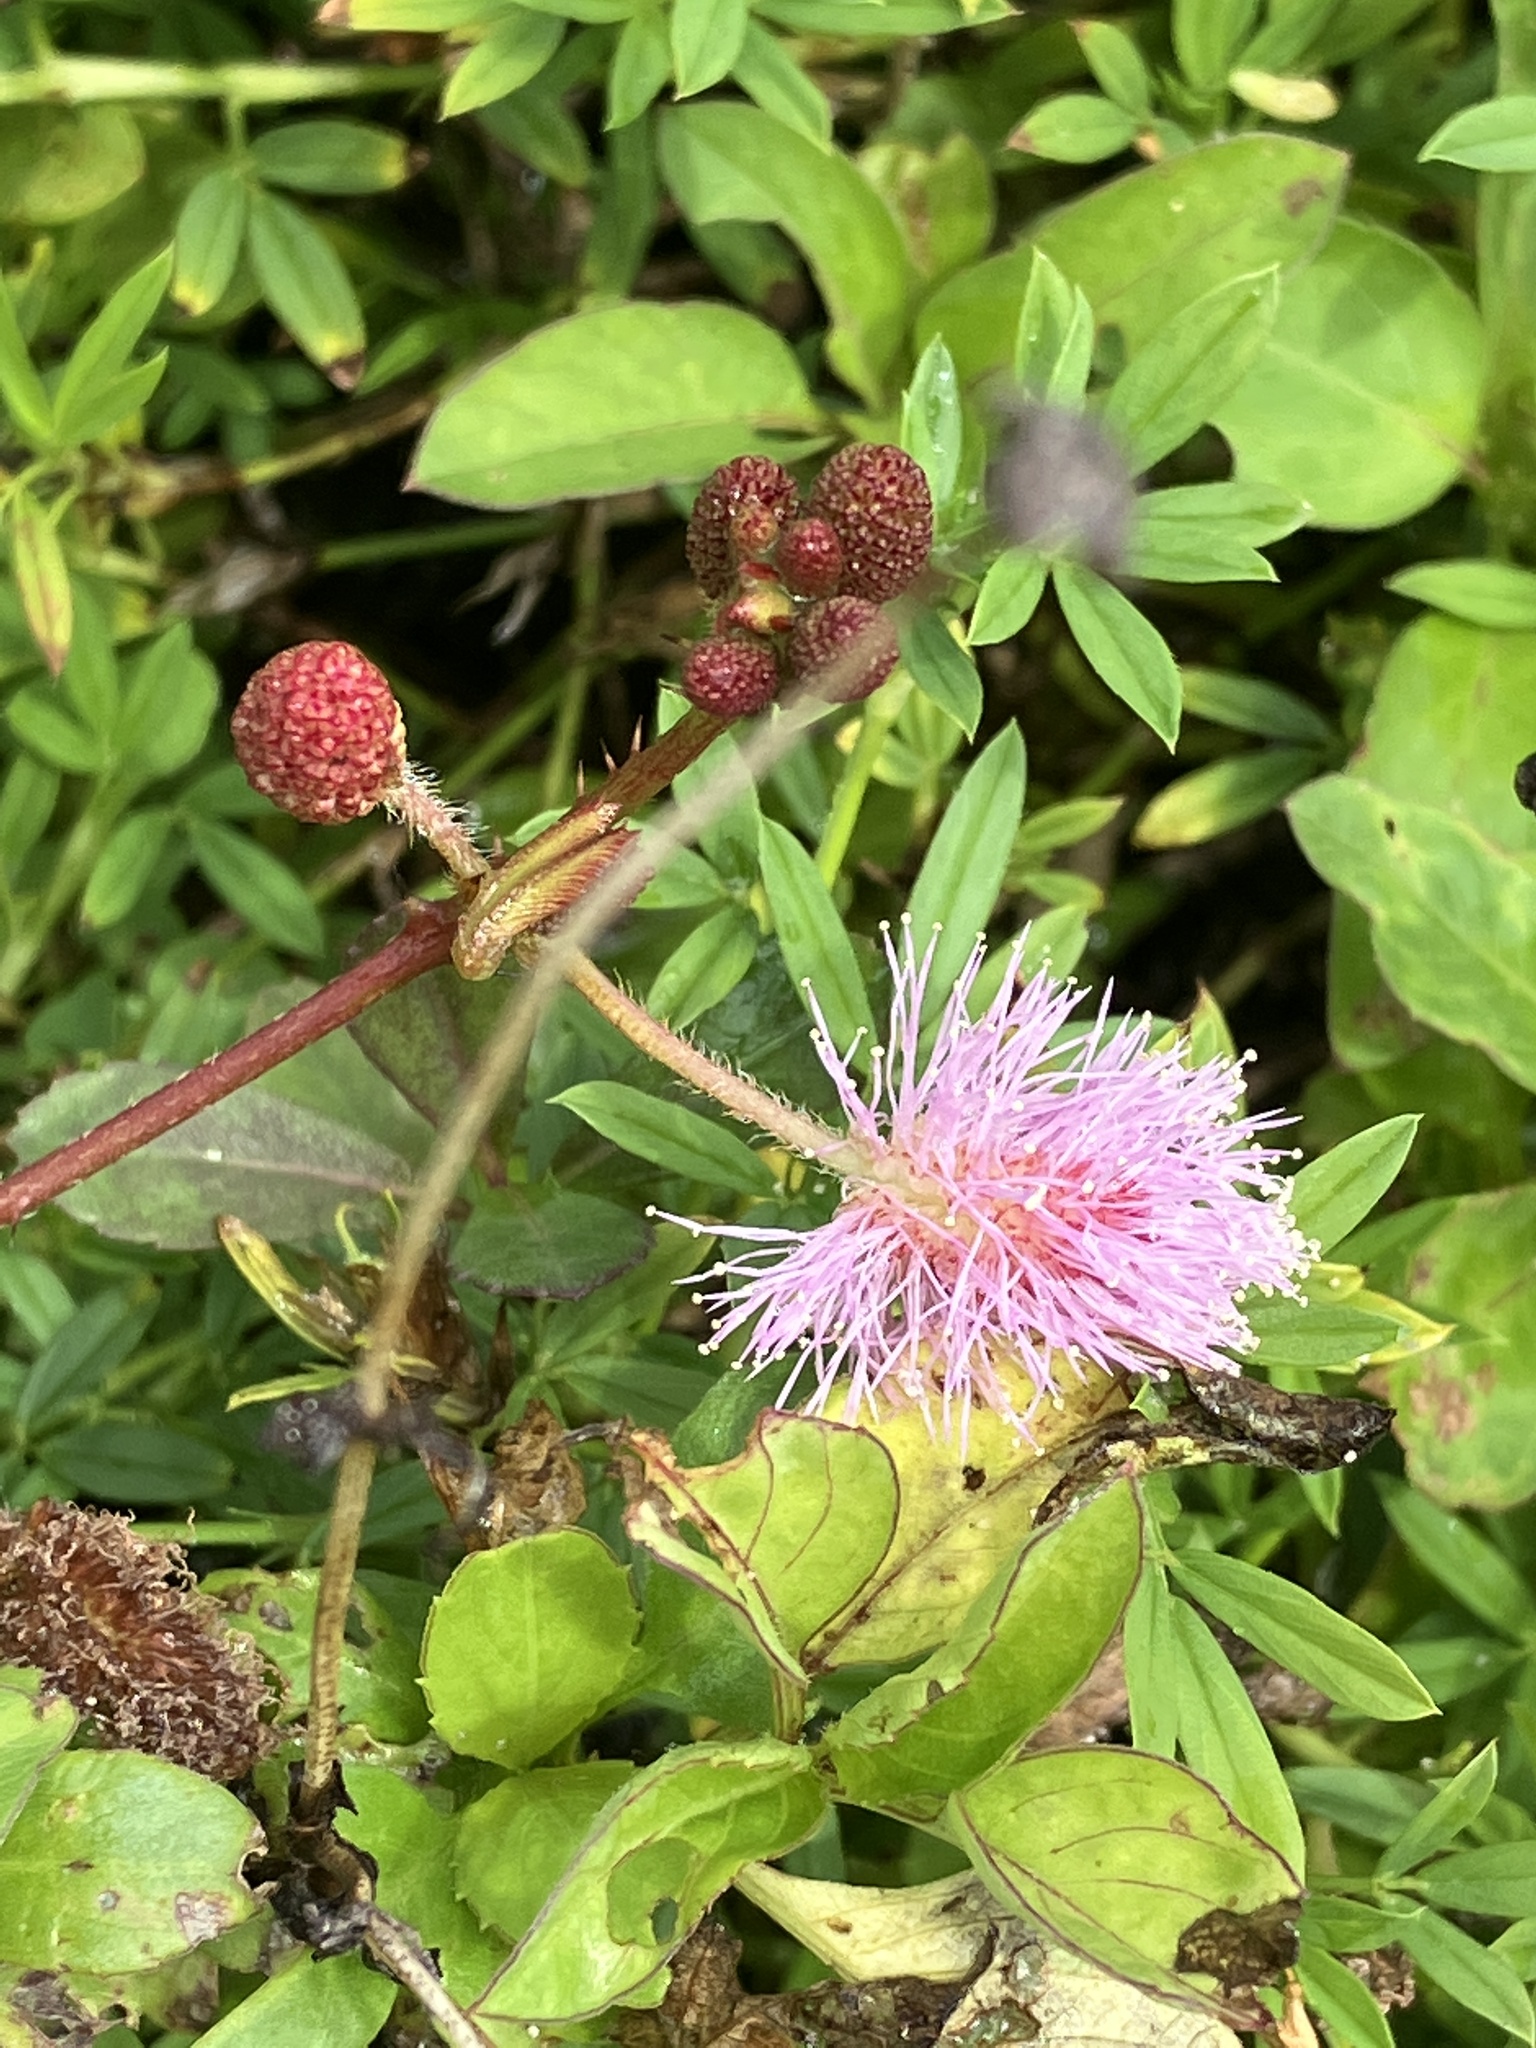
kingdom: Plantae
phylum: Tracheophyta
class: Magnoliopsida
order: Fabales
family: Fabaceae
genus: Mimosa
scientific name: Mimosa pudica
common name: Sensitive plant
